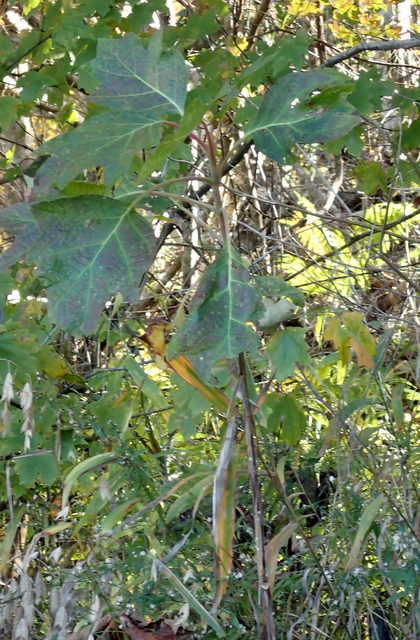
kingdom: Plantae
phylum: Tracheophyta
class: Magnoliopsida
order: Cornales
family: Hydrangeaceae
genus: Hydrangea
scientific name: Hydrangea quercifolia
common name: Oak-leaf hydrangea
